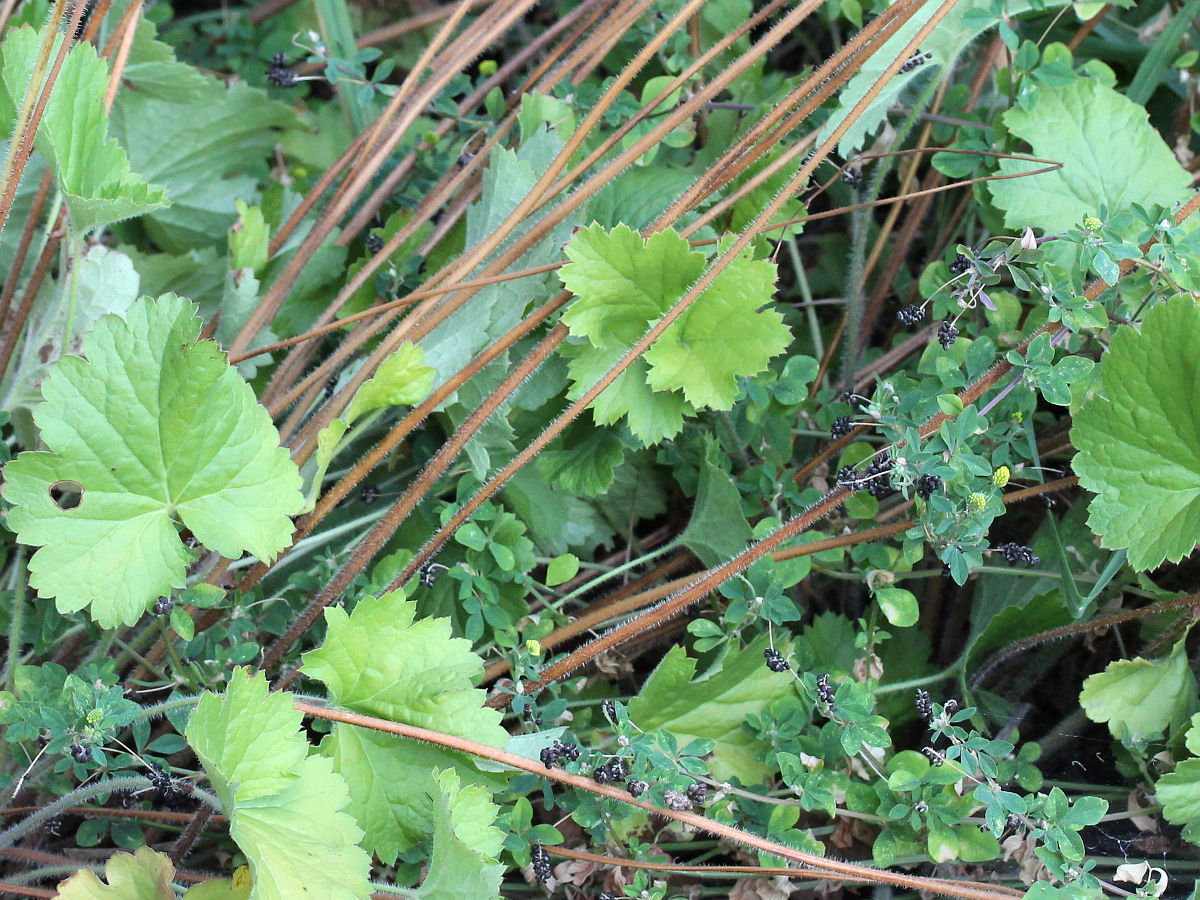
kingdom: Plantae
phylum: Tracheophyta
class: Magnoliopsida
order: Saxifragales
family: Saxifragaceae
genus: Heuchera
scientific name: Heuchera richardsonii
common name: Richardson's alumroot
